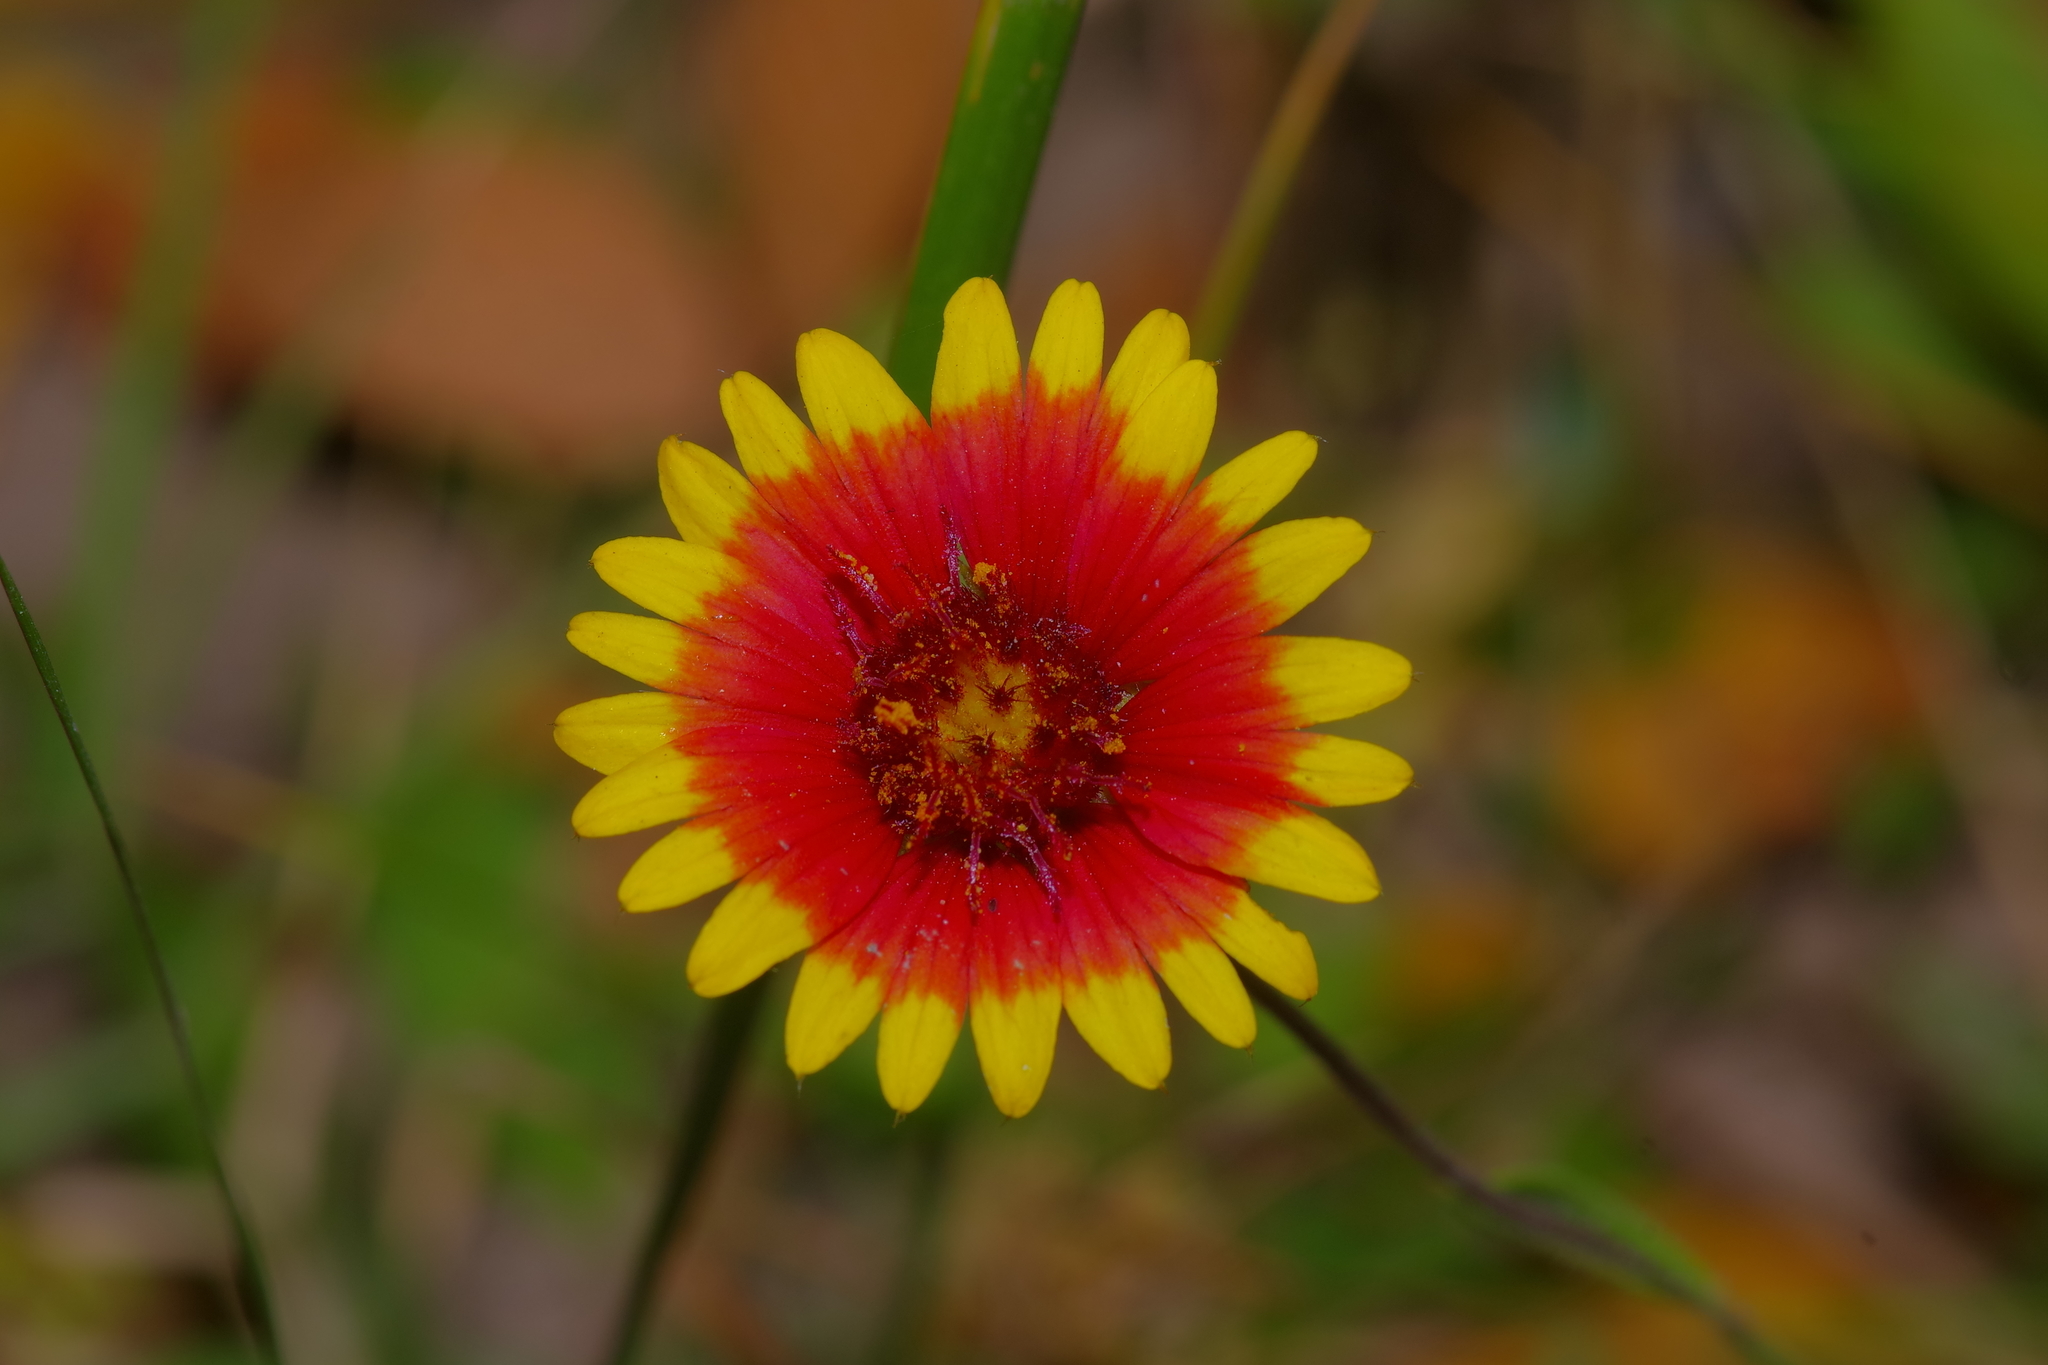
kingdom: Plantae
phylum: Tracheophyta
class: Magnoliopsida
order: Asterales
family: Asteraceae
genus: Gaillardia
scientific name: Gaillardia pulchella
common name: Firewheel
